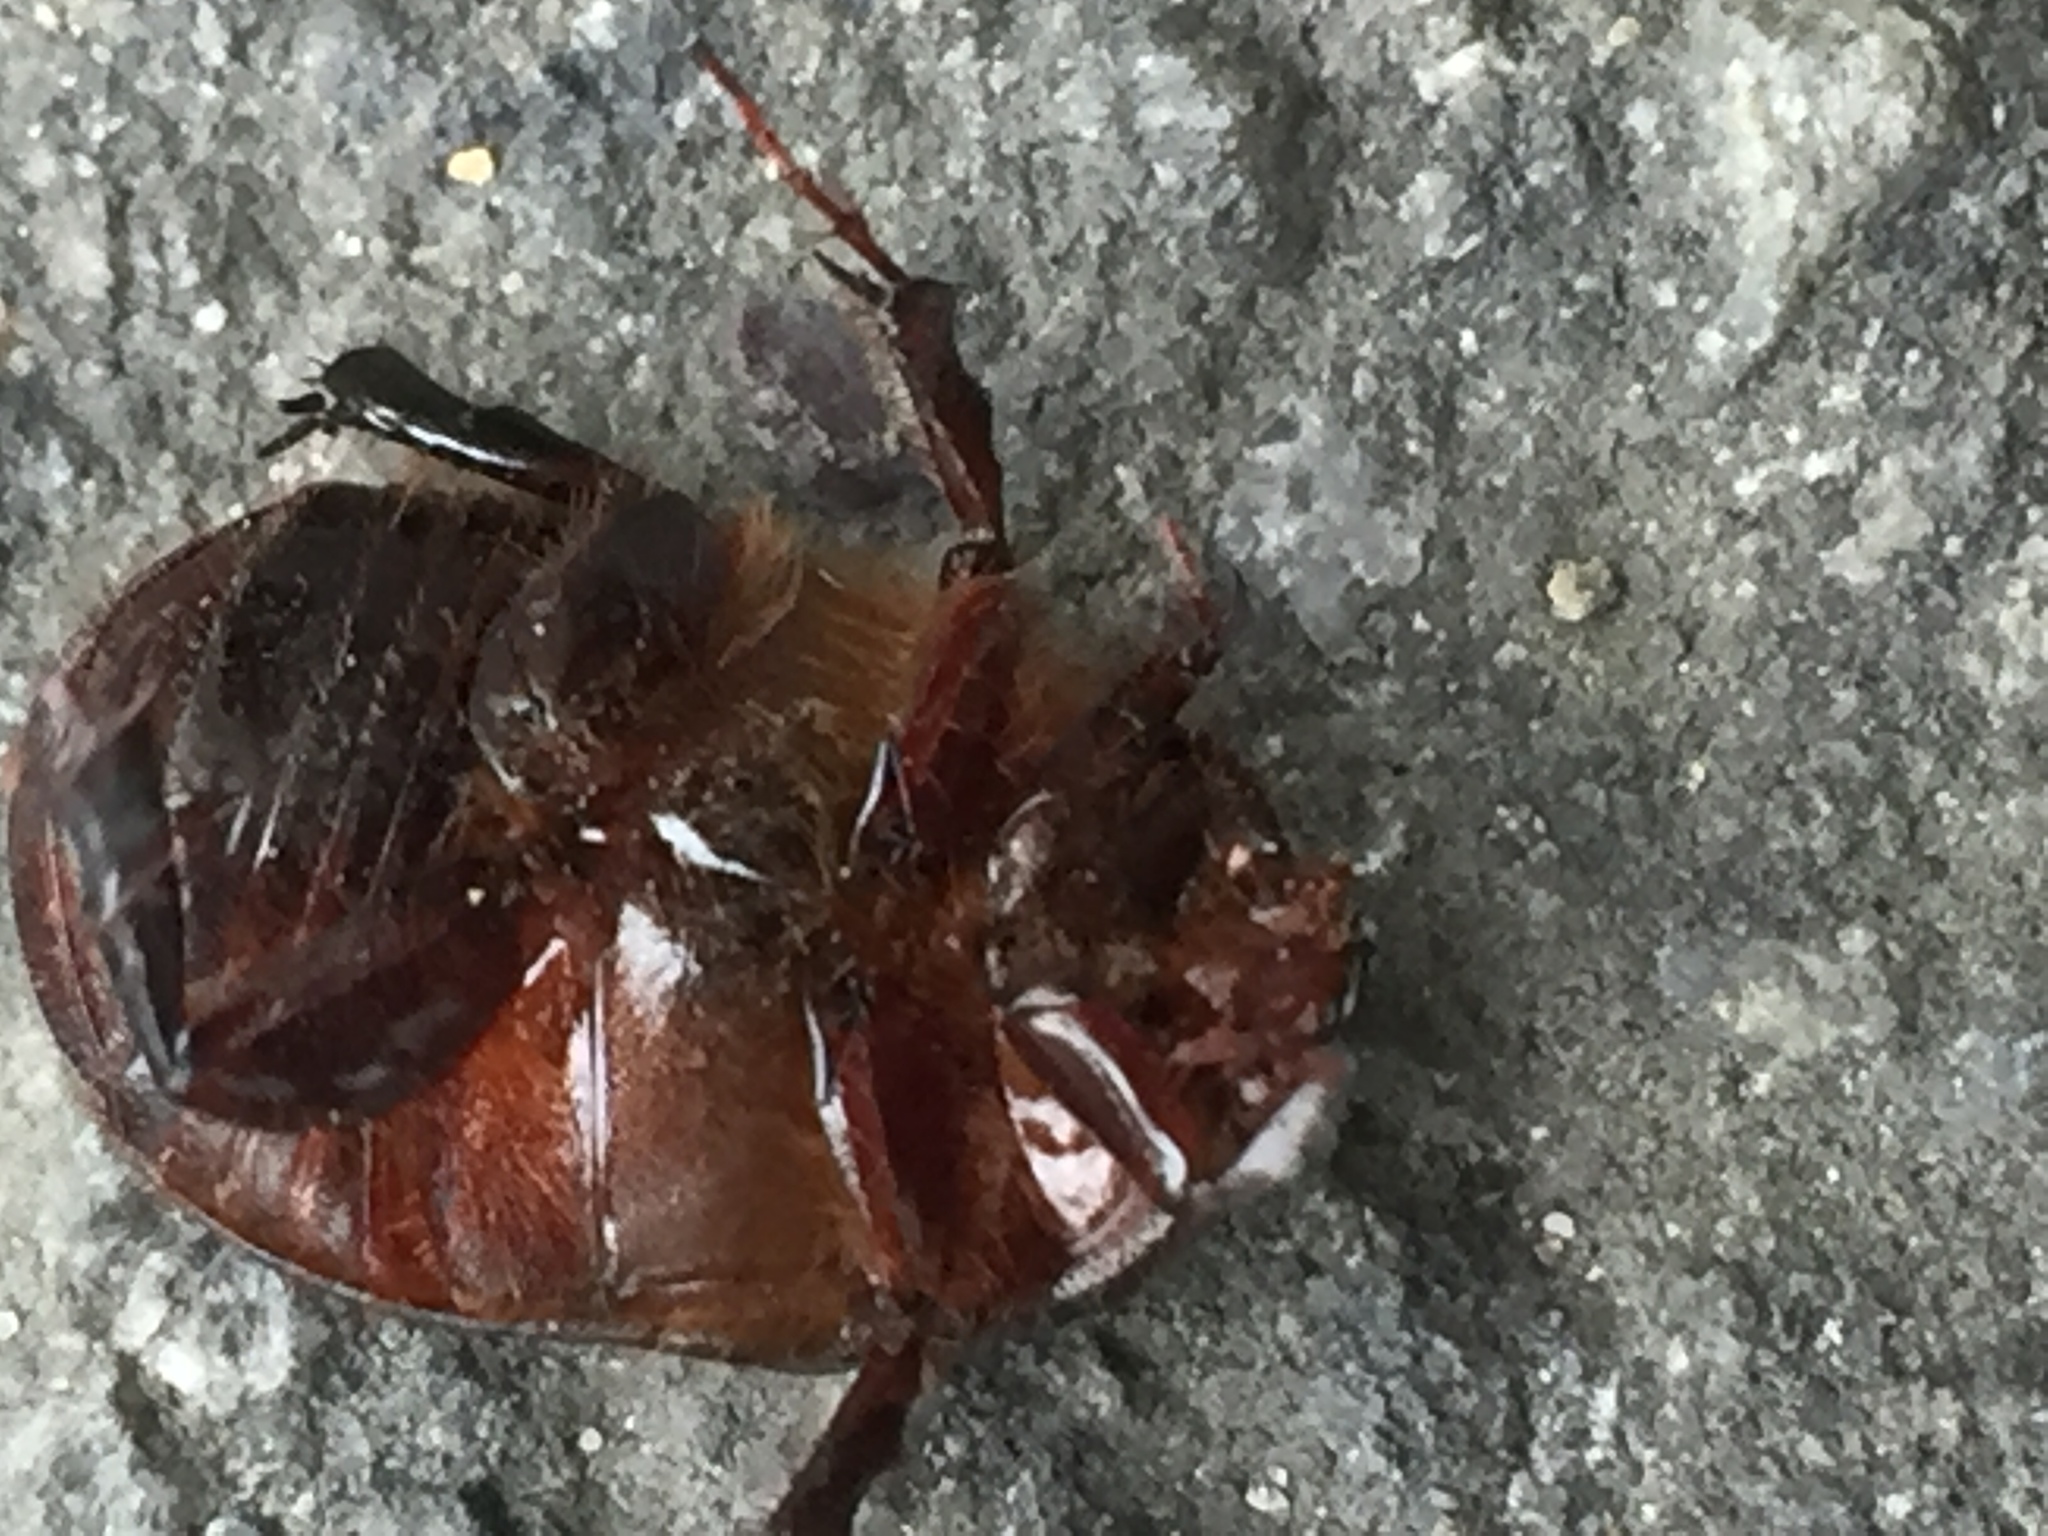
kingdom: Animalia
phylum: Arthropoda
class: Insecta
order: Coleoptera
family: Scarabaeidae
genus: Adoryphorus
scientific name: Adoryphorus couloni
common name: Redheaded pasture cockchafer
